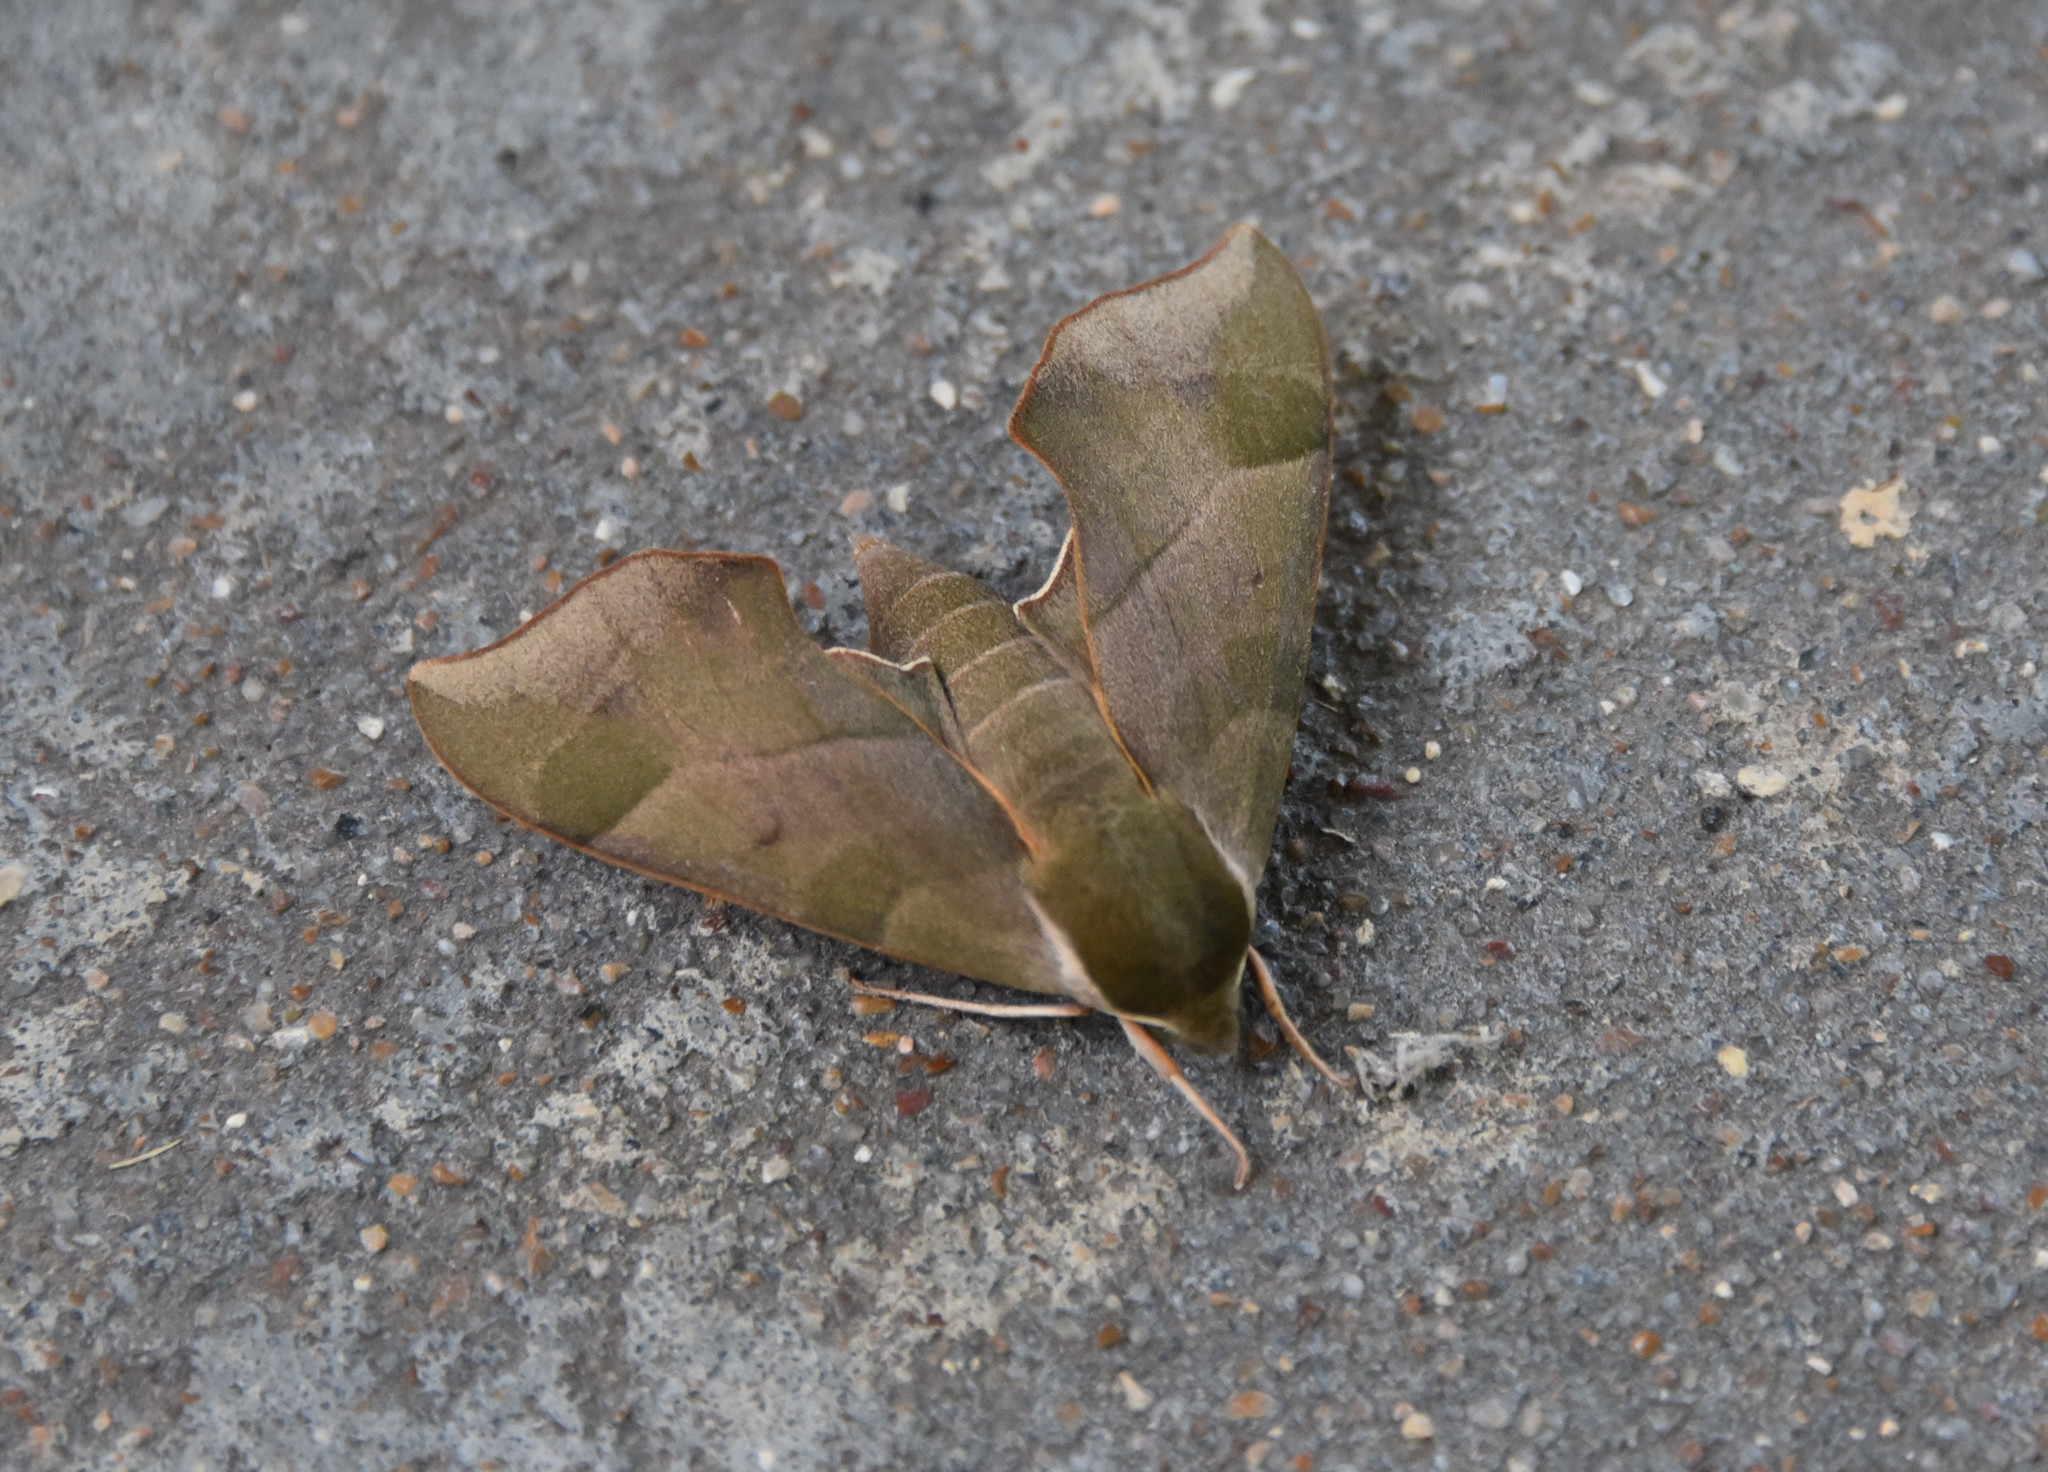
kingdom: Animalia
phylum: Arthropoda
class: Insecta
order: Lepidoptera
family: Sphingidae
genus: Darapsa
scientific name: Darapsa myron
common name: Hog sphinx
